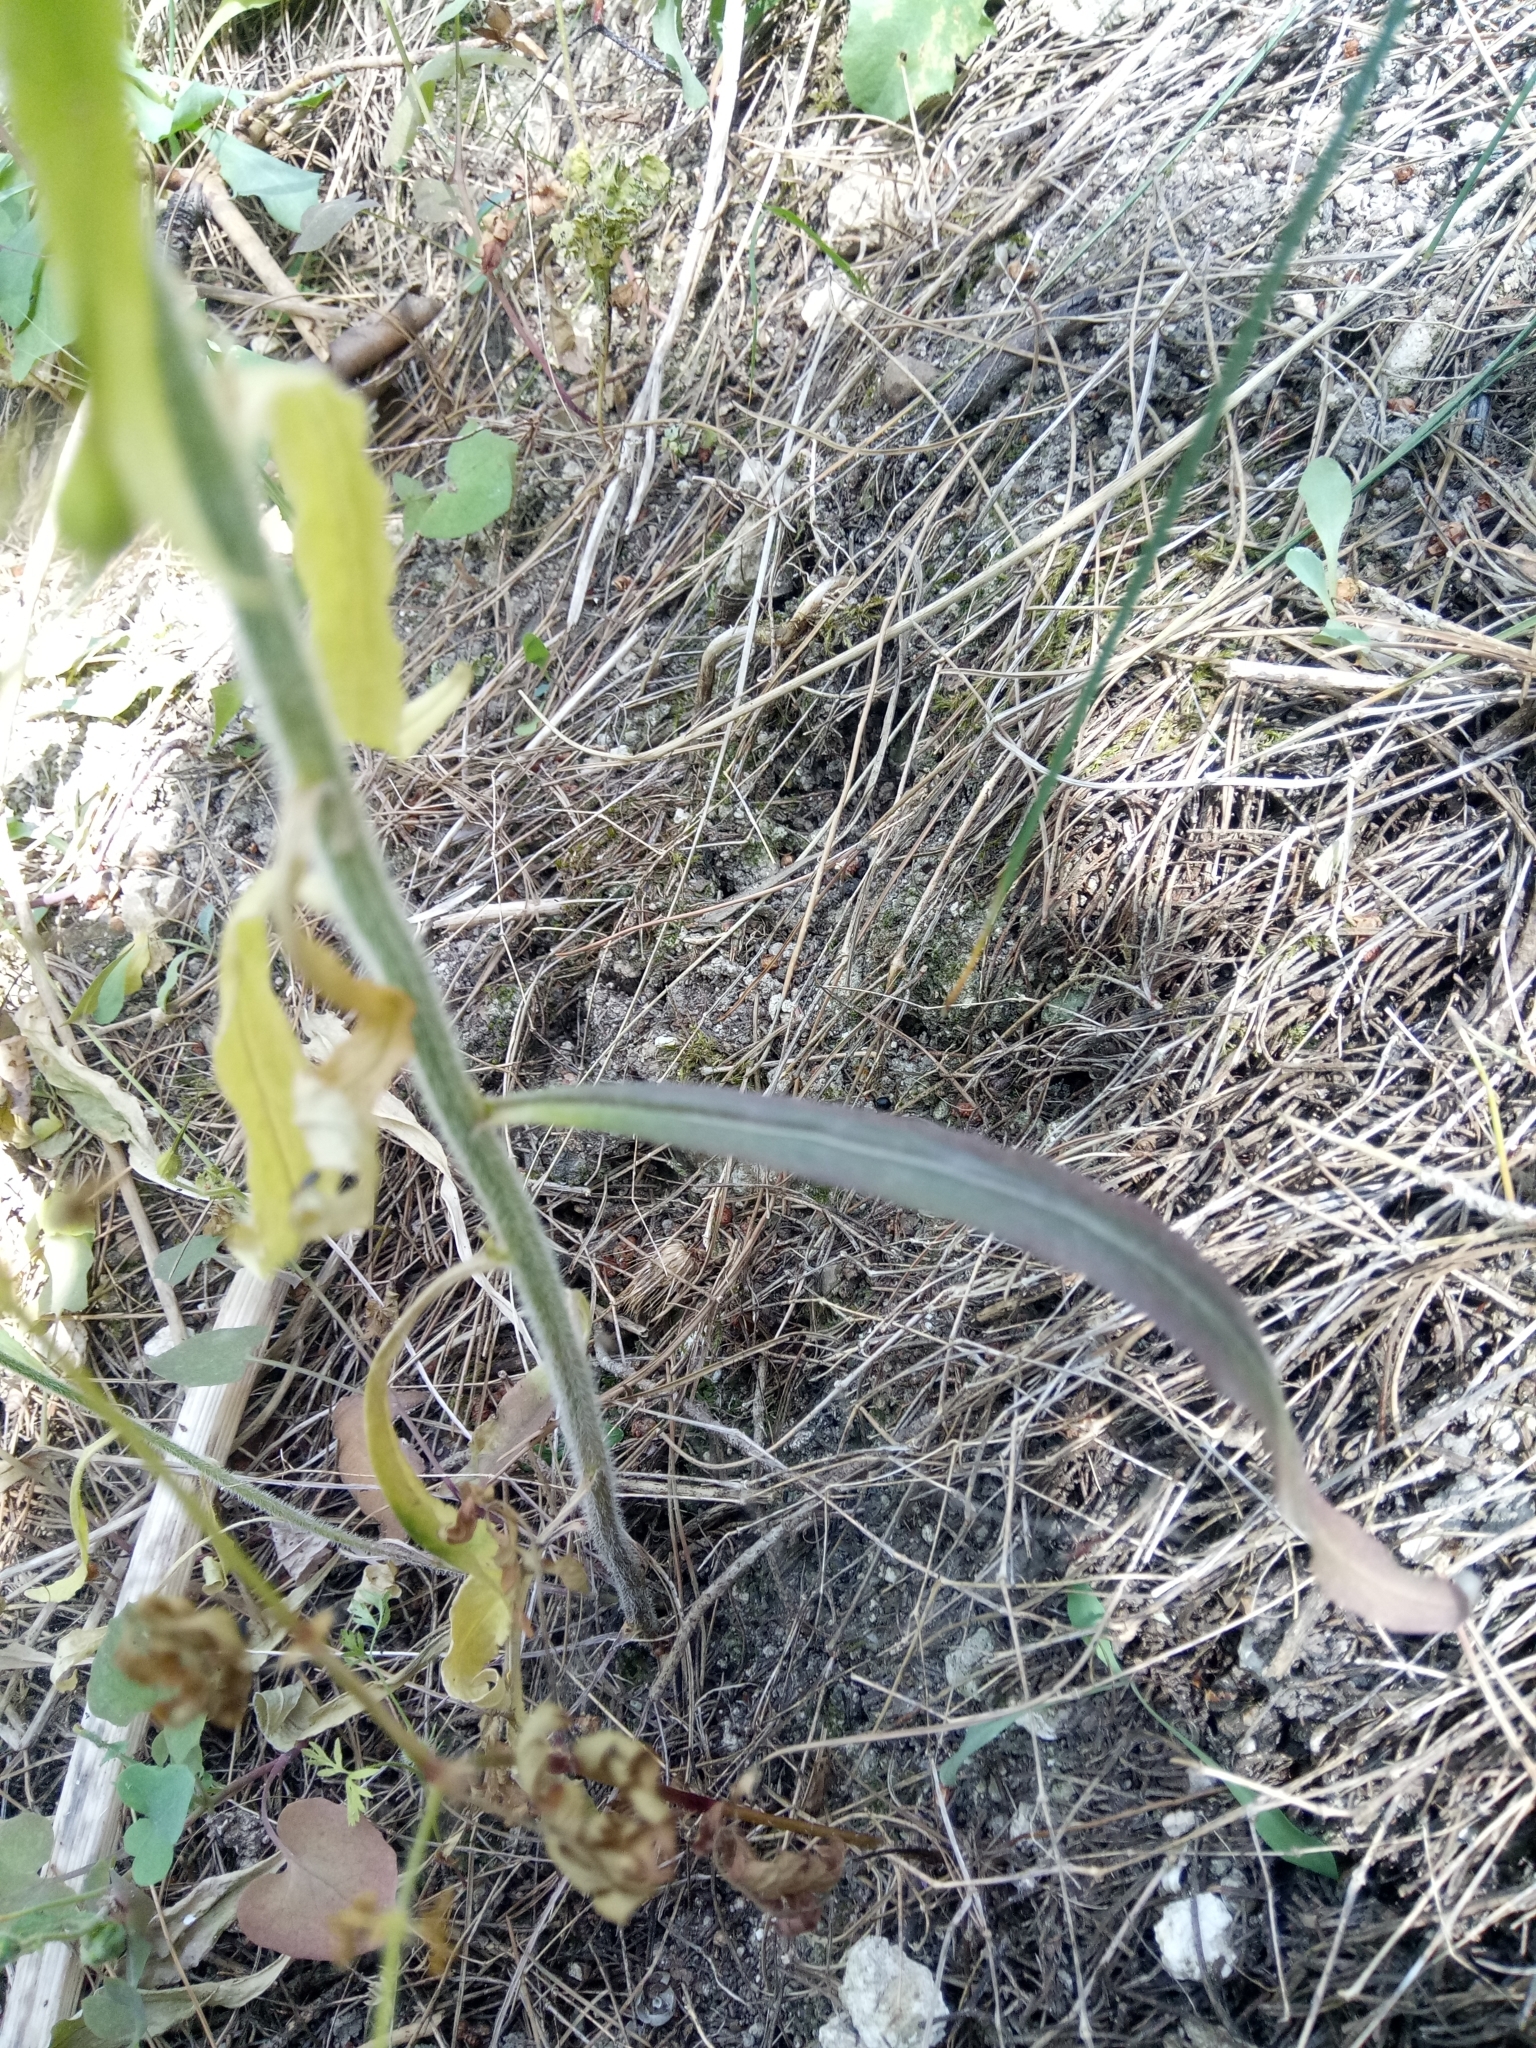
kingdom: Plantae
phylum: Tracheophyta
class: Magnoliopsida
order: Asterales
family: Campanulaceae
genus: Campanula
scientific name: Campanula rapunculus
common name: Rampion bellflower
